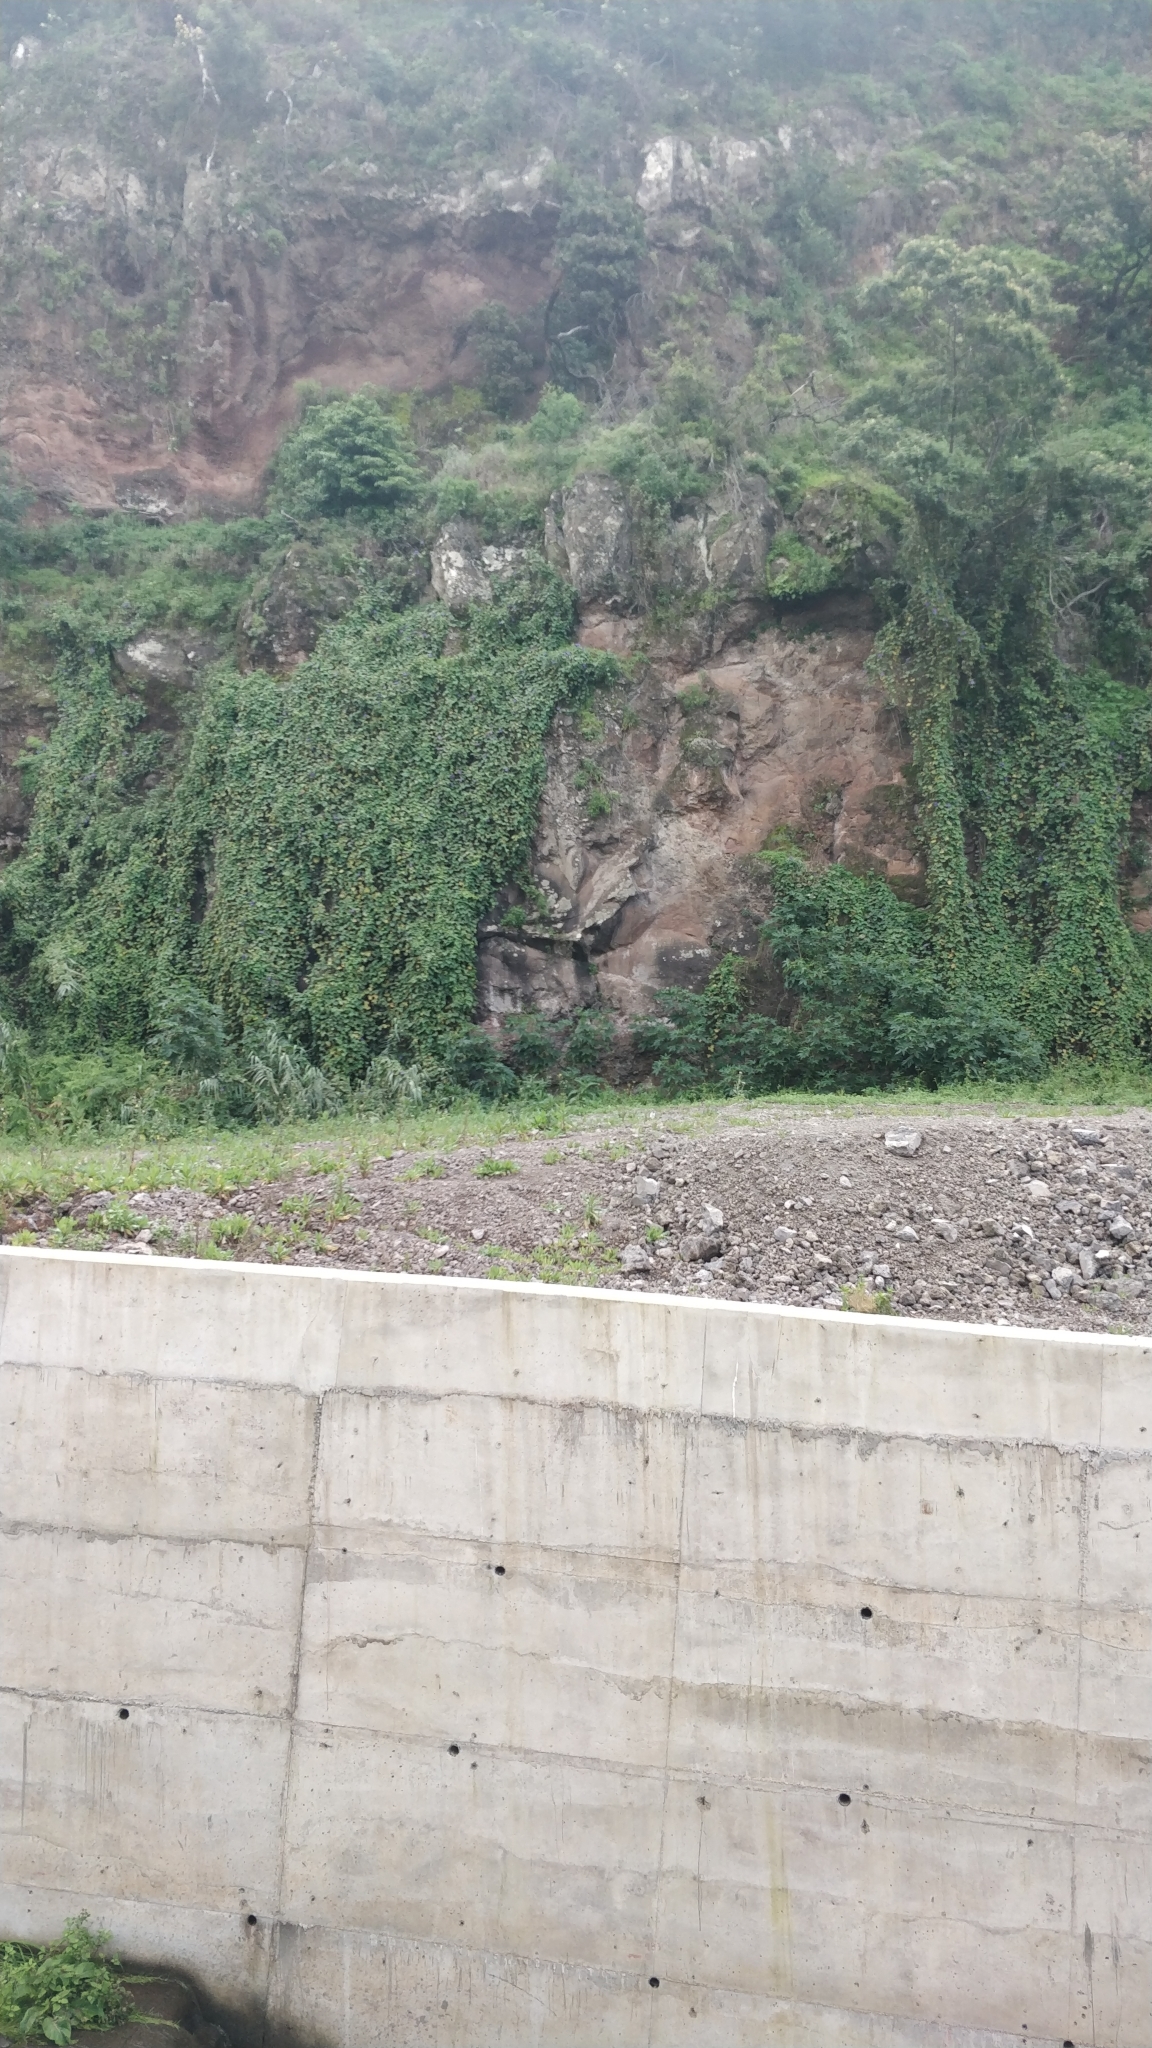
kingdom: Plantae
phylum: Tracheophyta
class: Magnoliopsida
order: Solanales
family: Convolvulaceae
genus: Ipomoea
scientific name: Ipomoea indica
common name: Blue dawnflower
